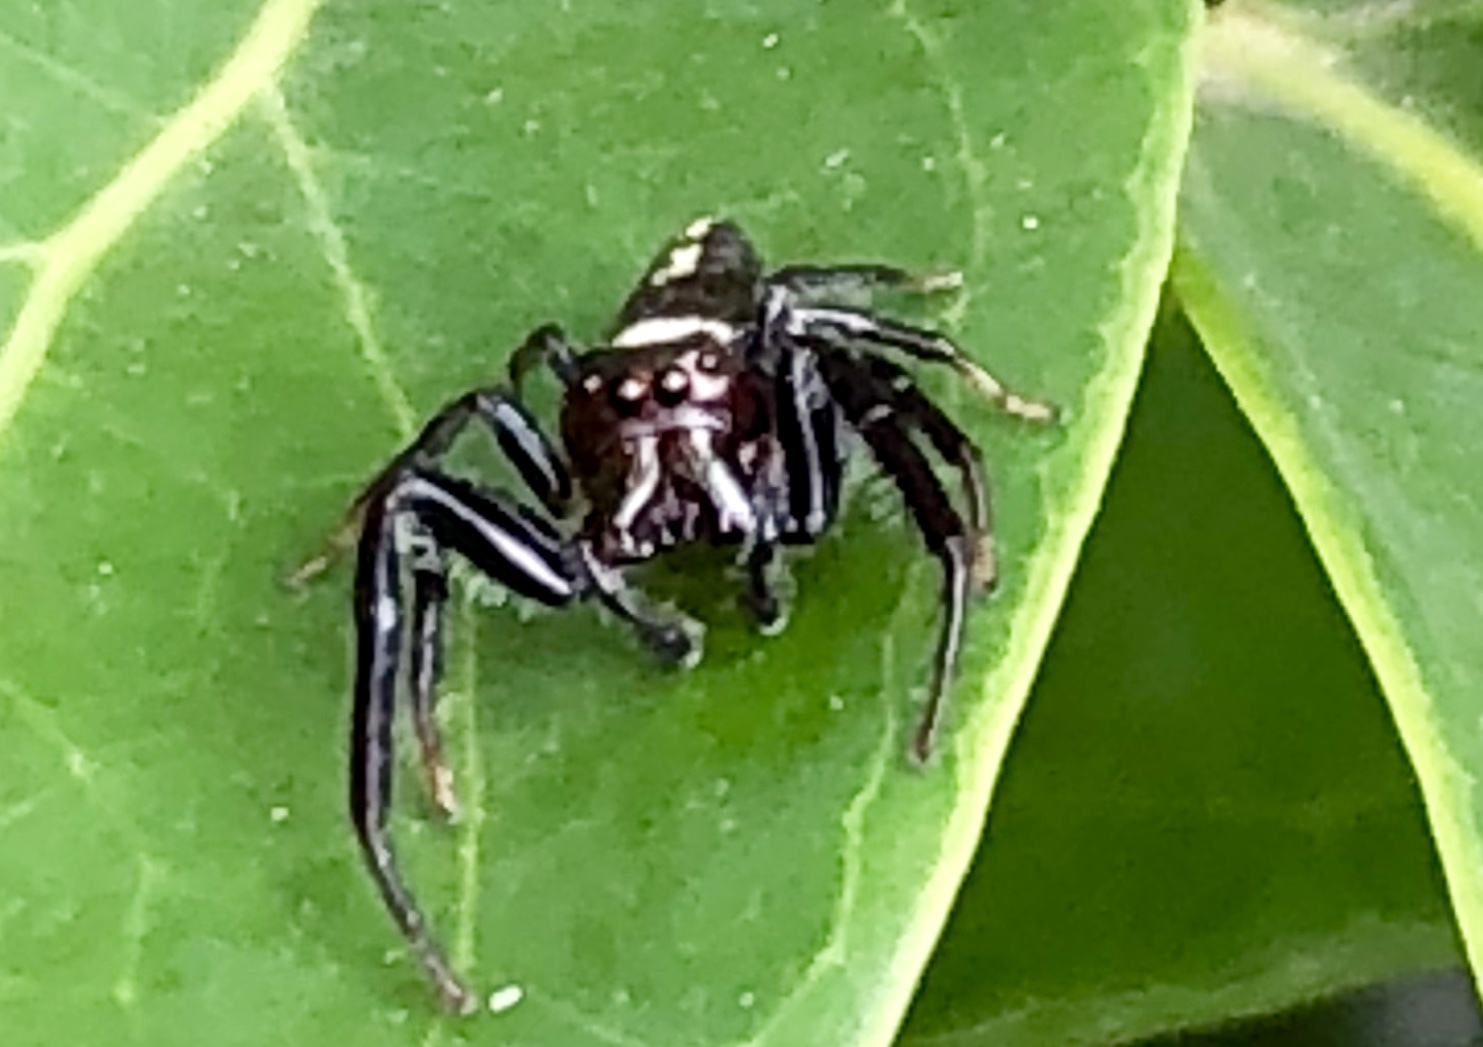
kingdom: Animalia
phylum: Arthropoda
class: Arachnida
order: Araneae
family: Salticidae
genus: Opisthoncus
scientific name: Opisthoncus grassator
